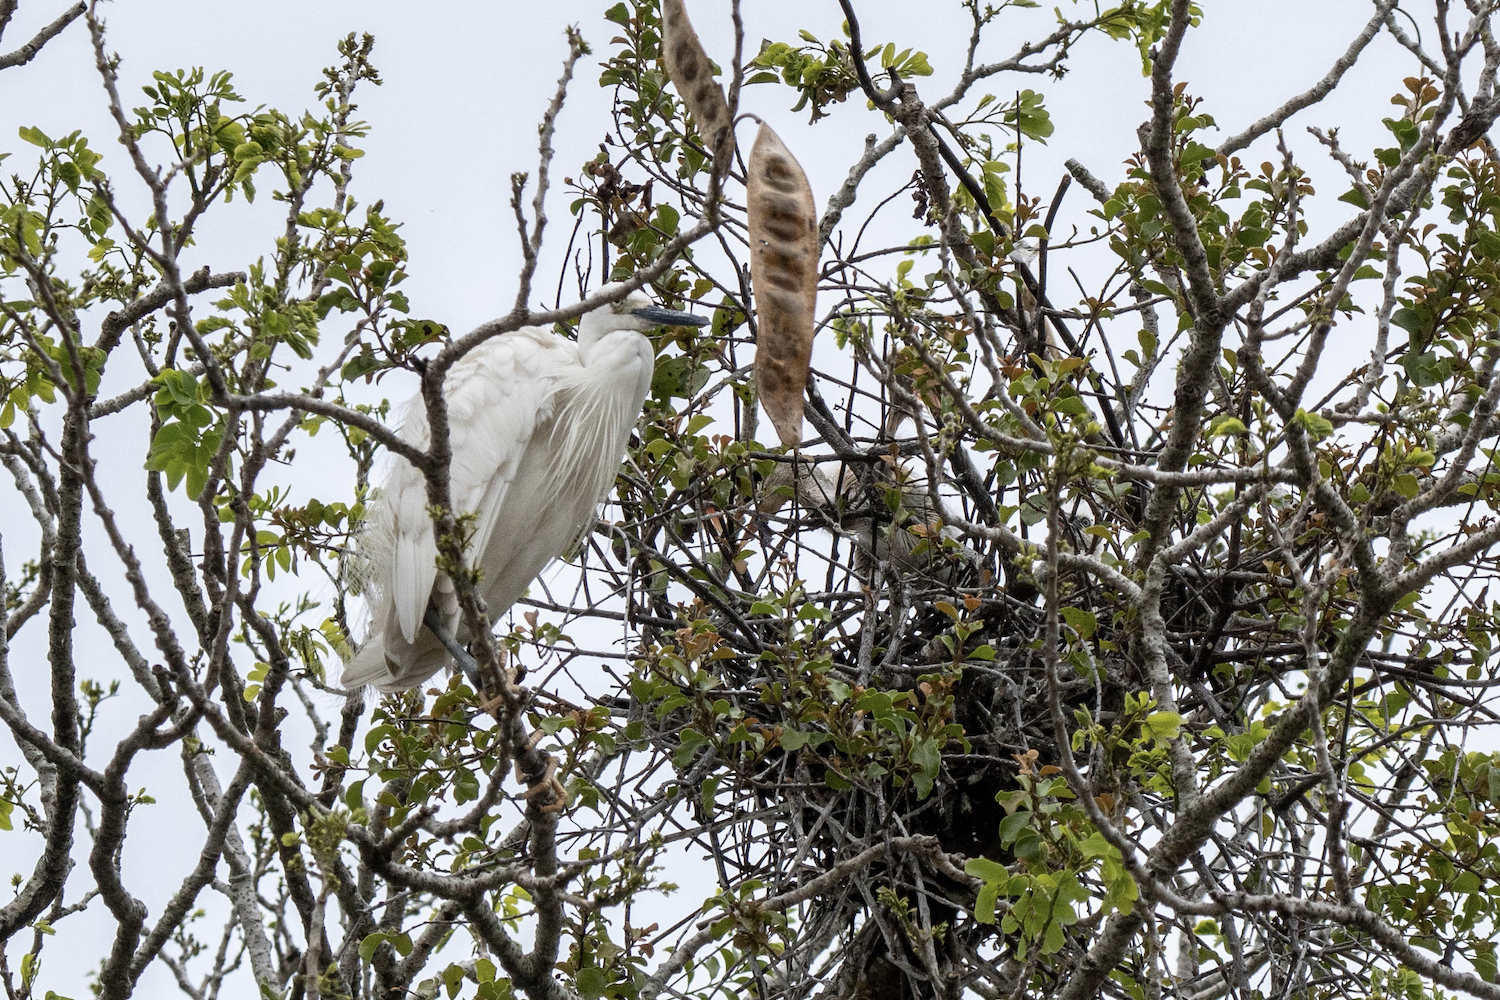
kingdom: Animalia
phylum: Chordata
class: Aves
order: Pelecaniformes
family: Ardeidae
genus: Egretta
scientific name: Egretta garzetta
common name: Little egret
